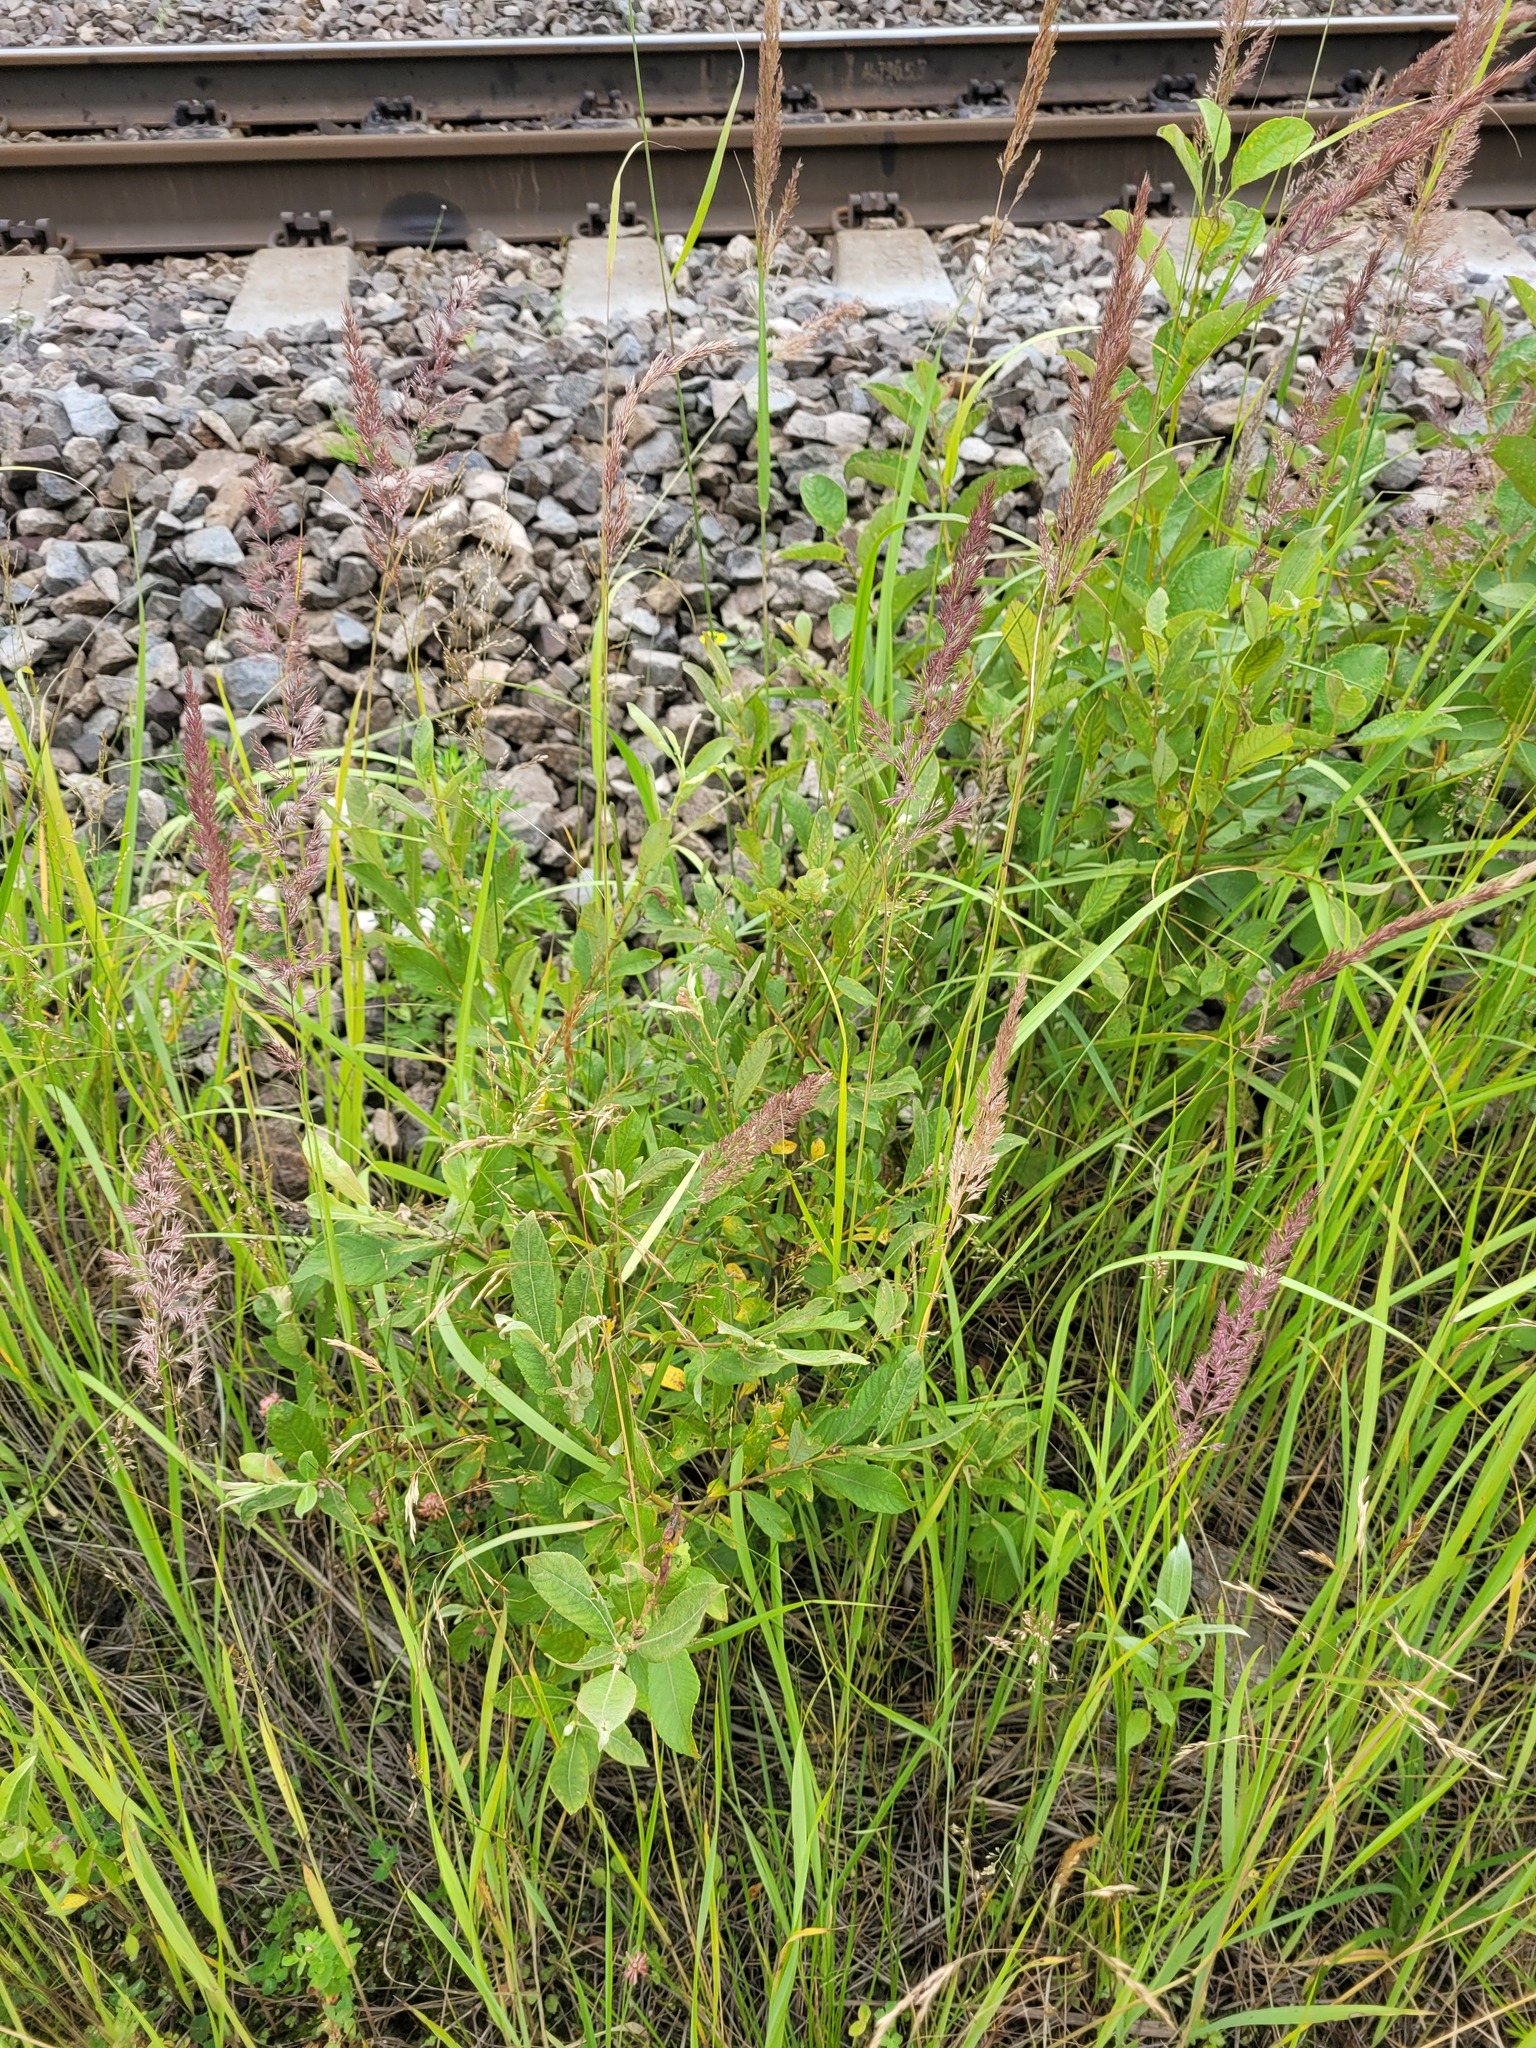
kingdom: Plantae
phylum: Tracheophyta
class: Magnoliopsida
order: Malpighiales
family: Salicaceae
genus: Salix
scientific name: Salix cinerea
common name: Common sallow
